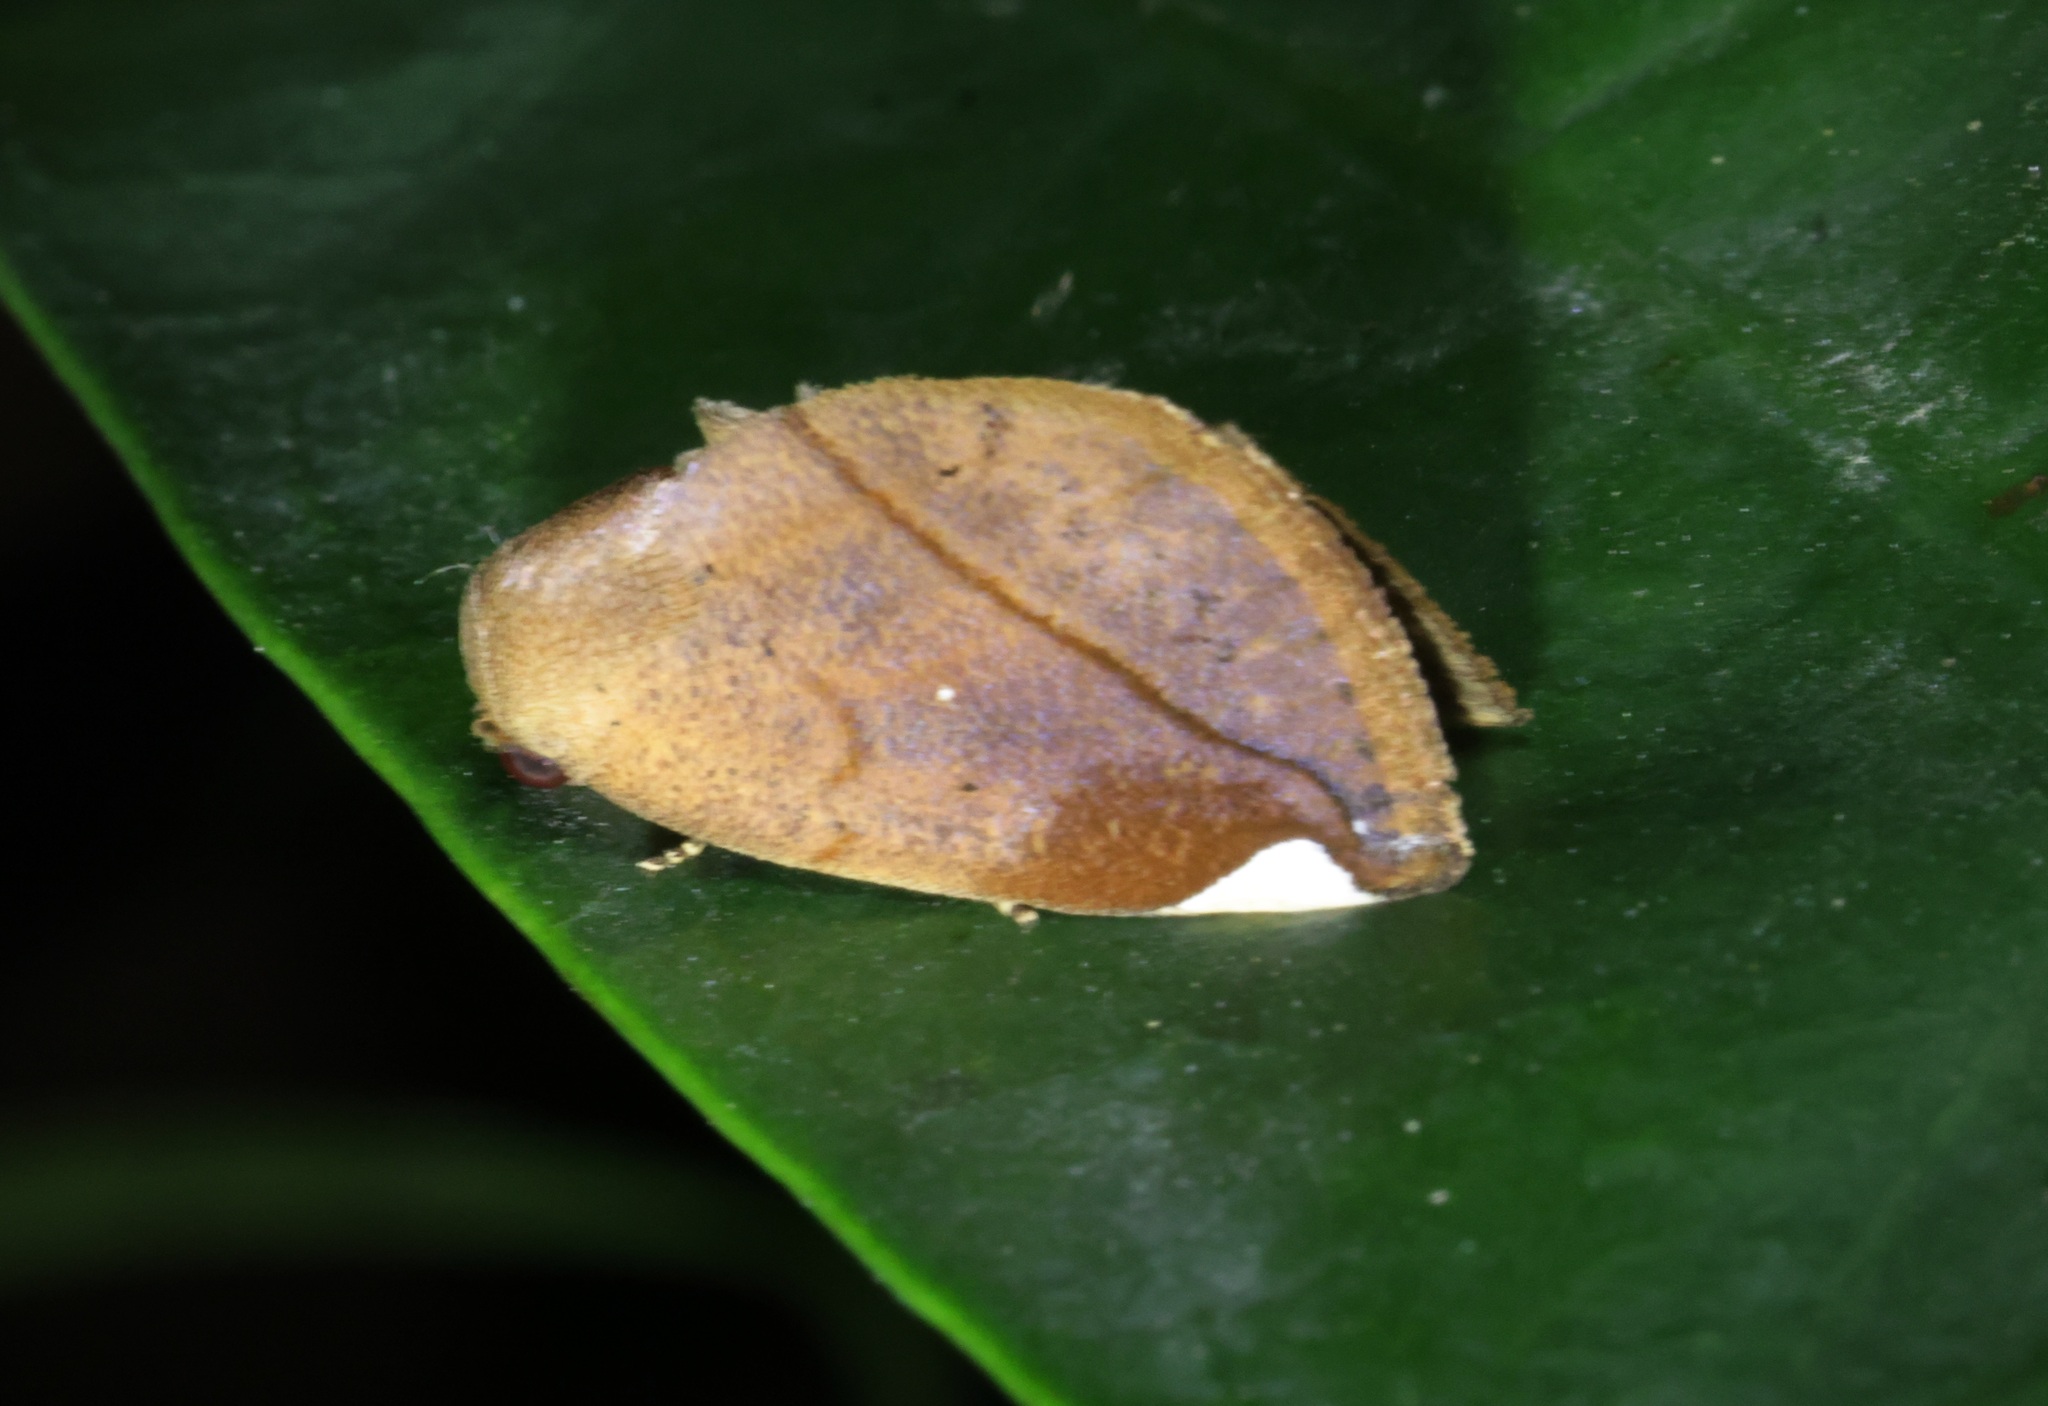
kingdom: Animalia
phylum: Arthropoda
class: Insecta
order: Lepidoptera
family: Nolidae
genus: Negeta
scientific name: Negeta contrariata
